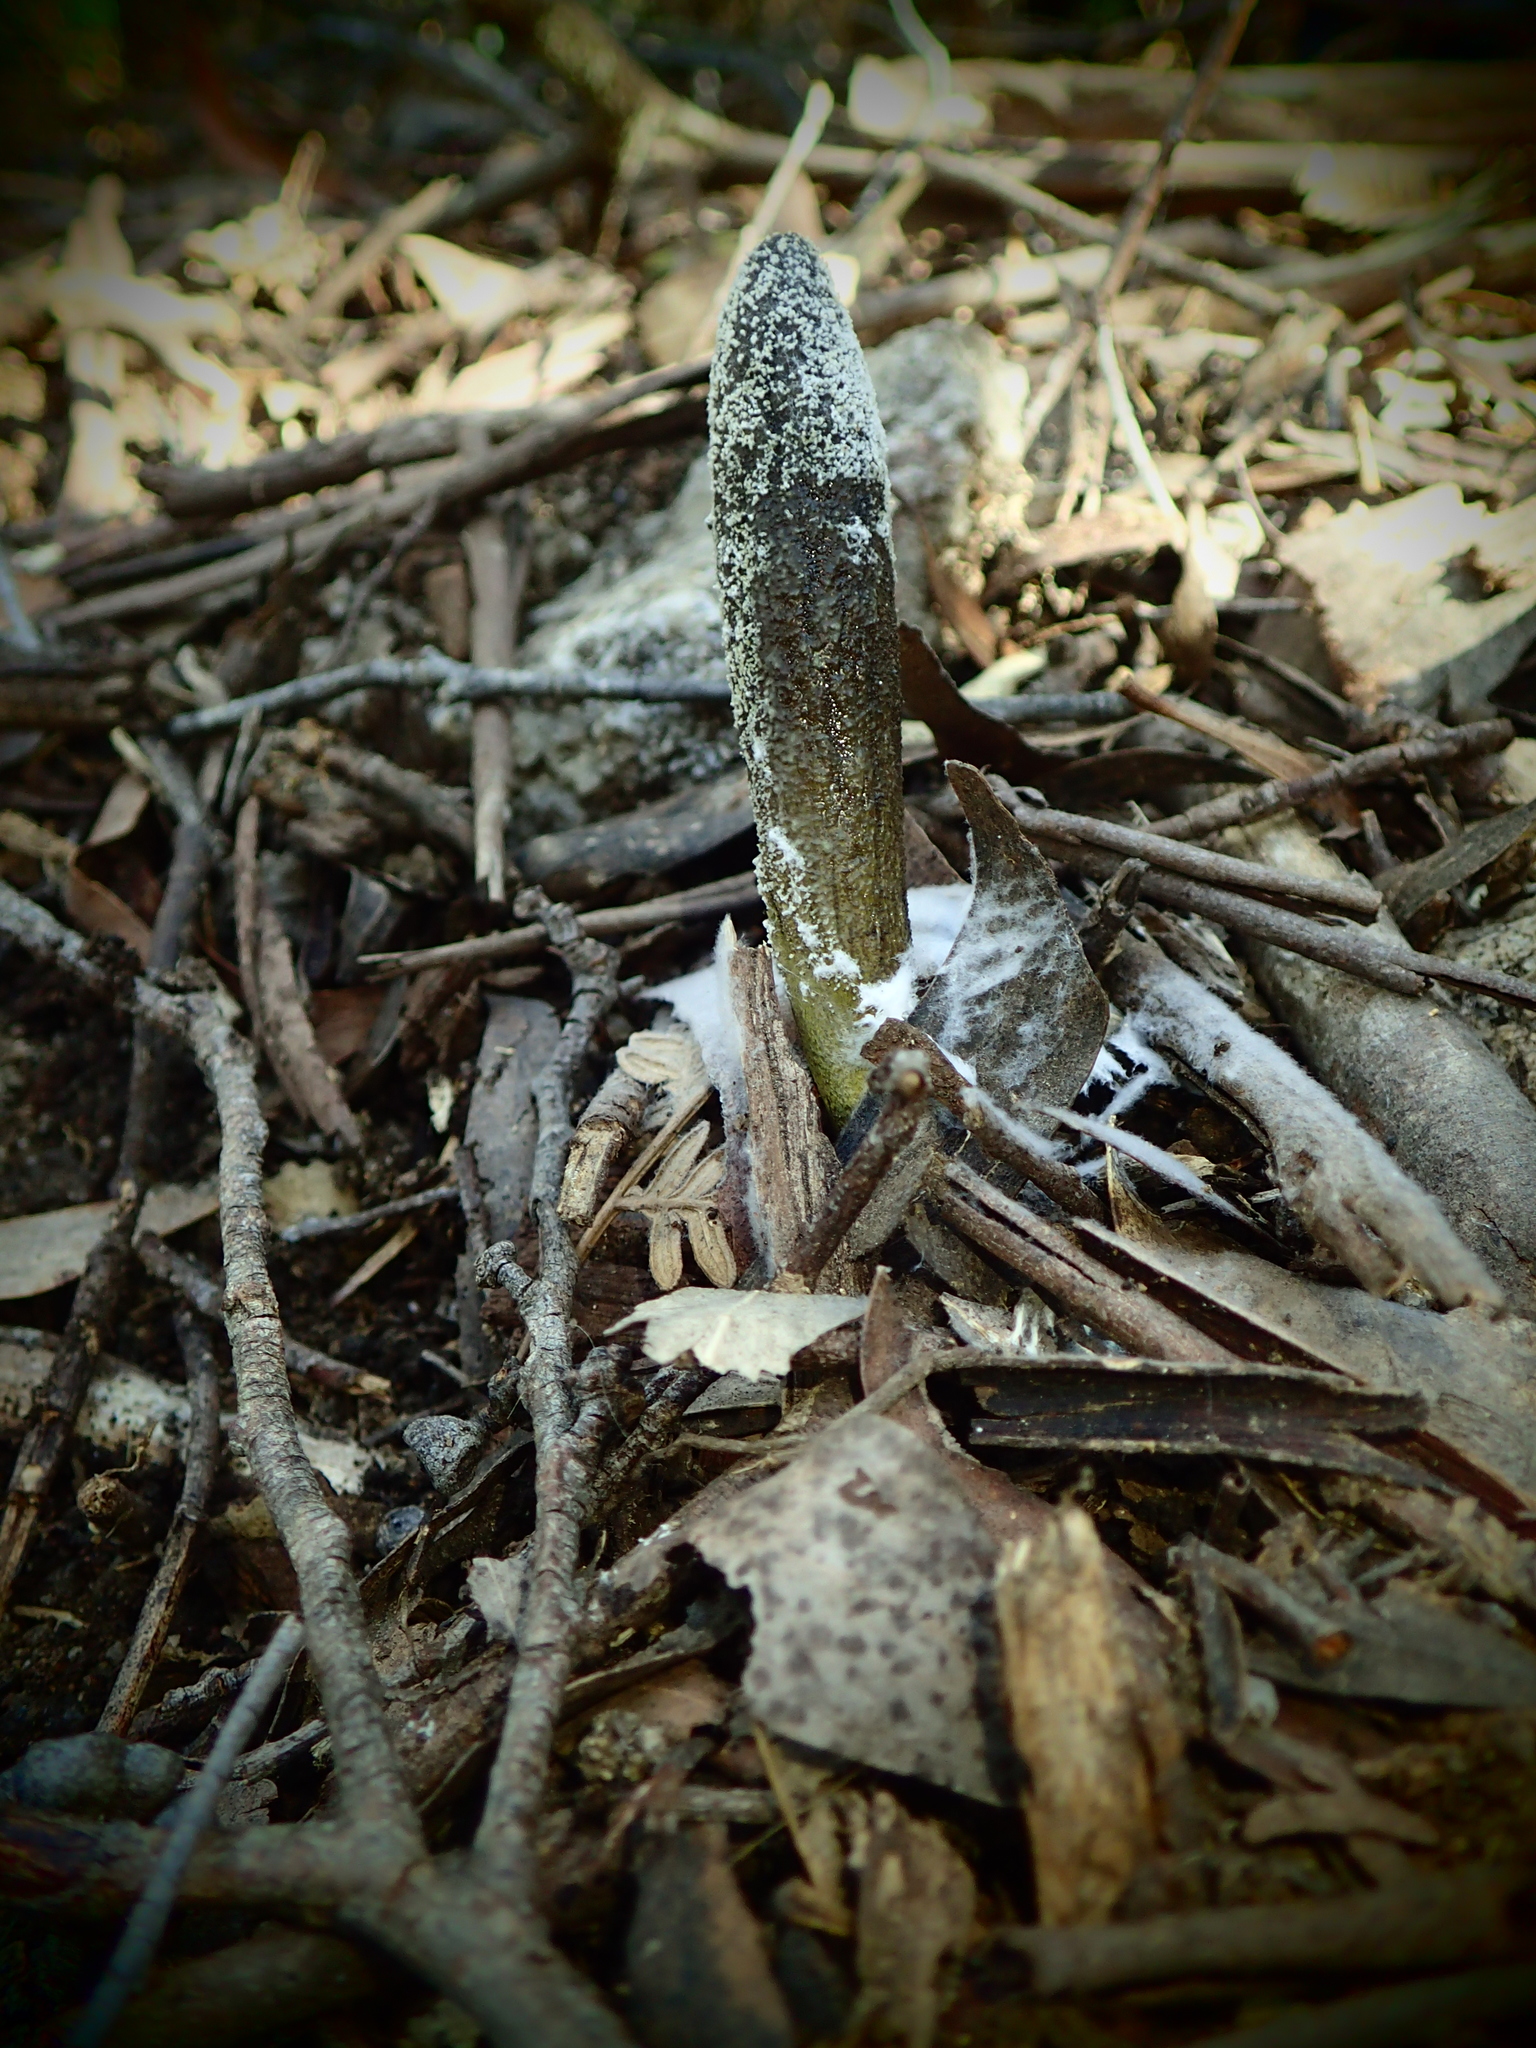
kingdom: Fungi
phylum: Ascomycota
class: Sordariomycetes
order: Hypocreales
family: Clavicipitaceae
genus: Drechmeria
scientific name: Drechmeria gunnii
